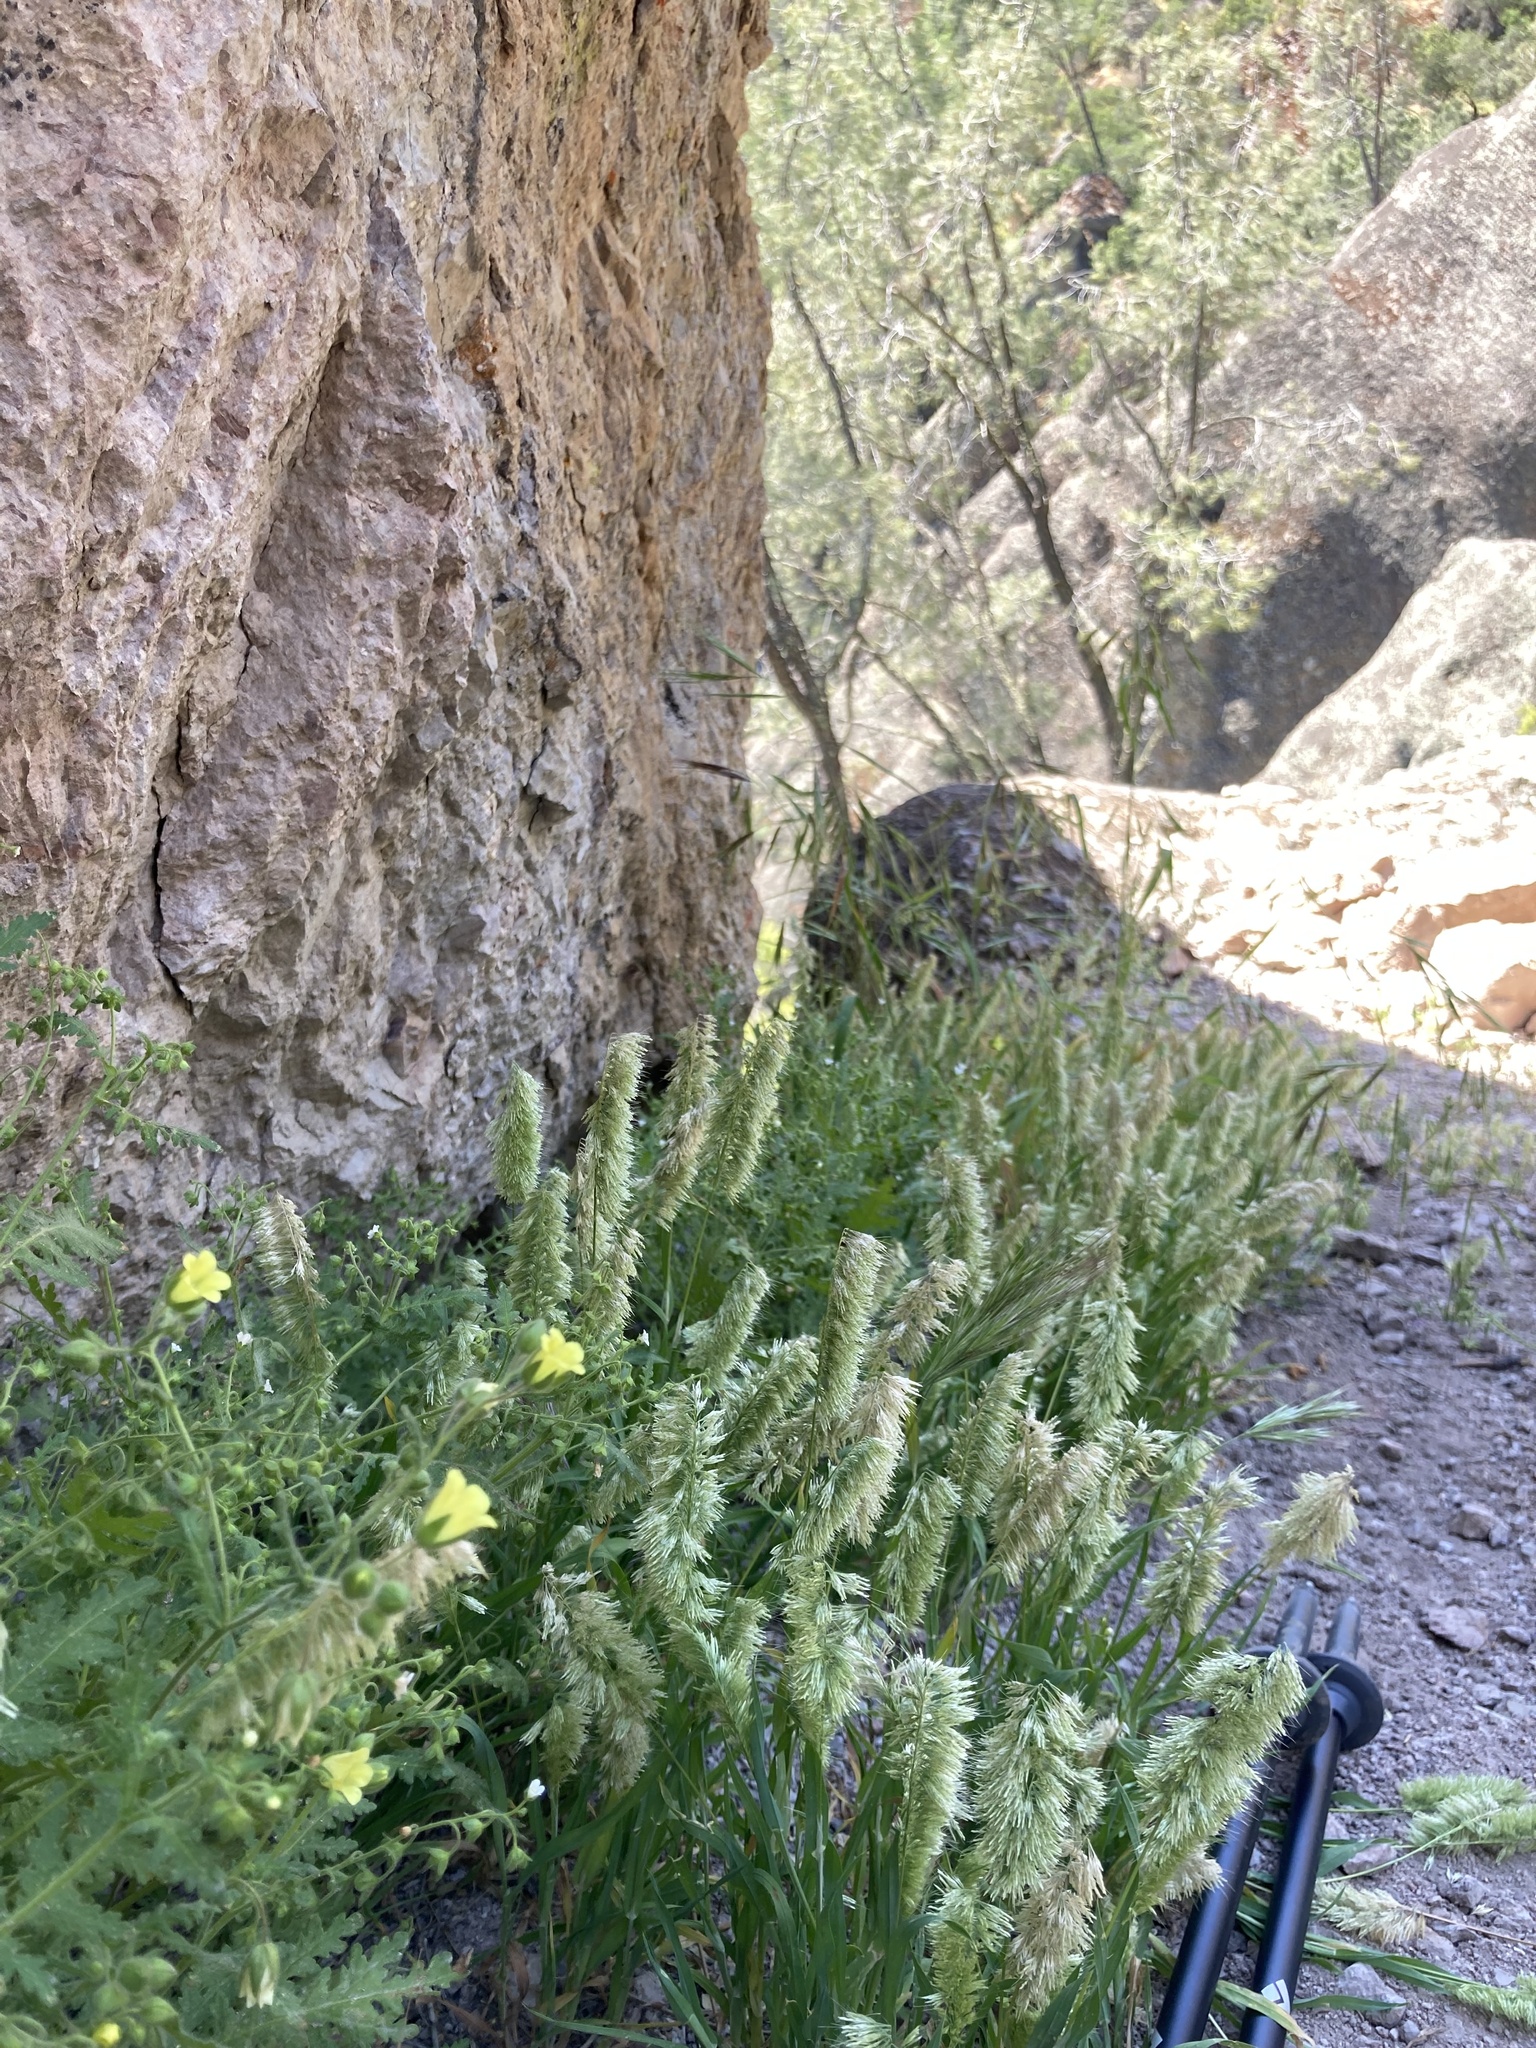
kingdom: Plantae
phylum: Tracheophyta
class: Liliopsida
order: Poales
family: Poaceae
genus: Lamarckia
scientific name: Lamarckia aurea
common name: Golden dog's-tail
